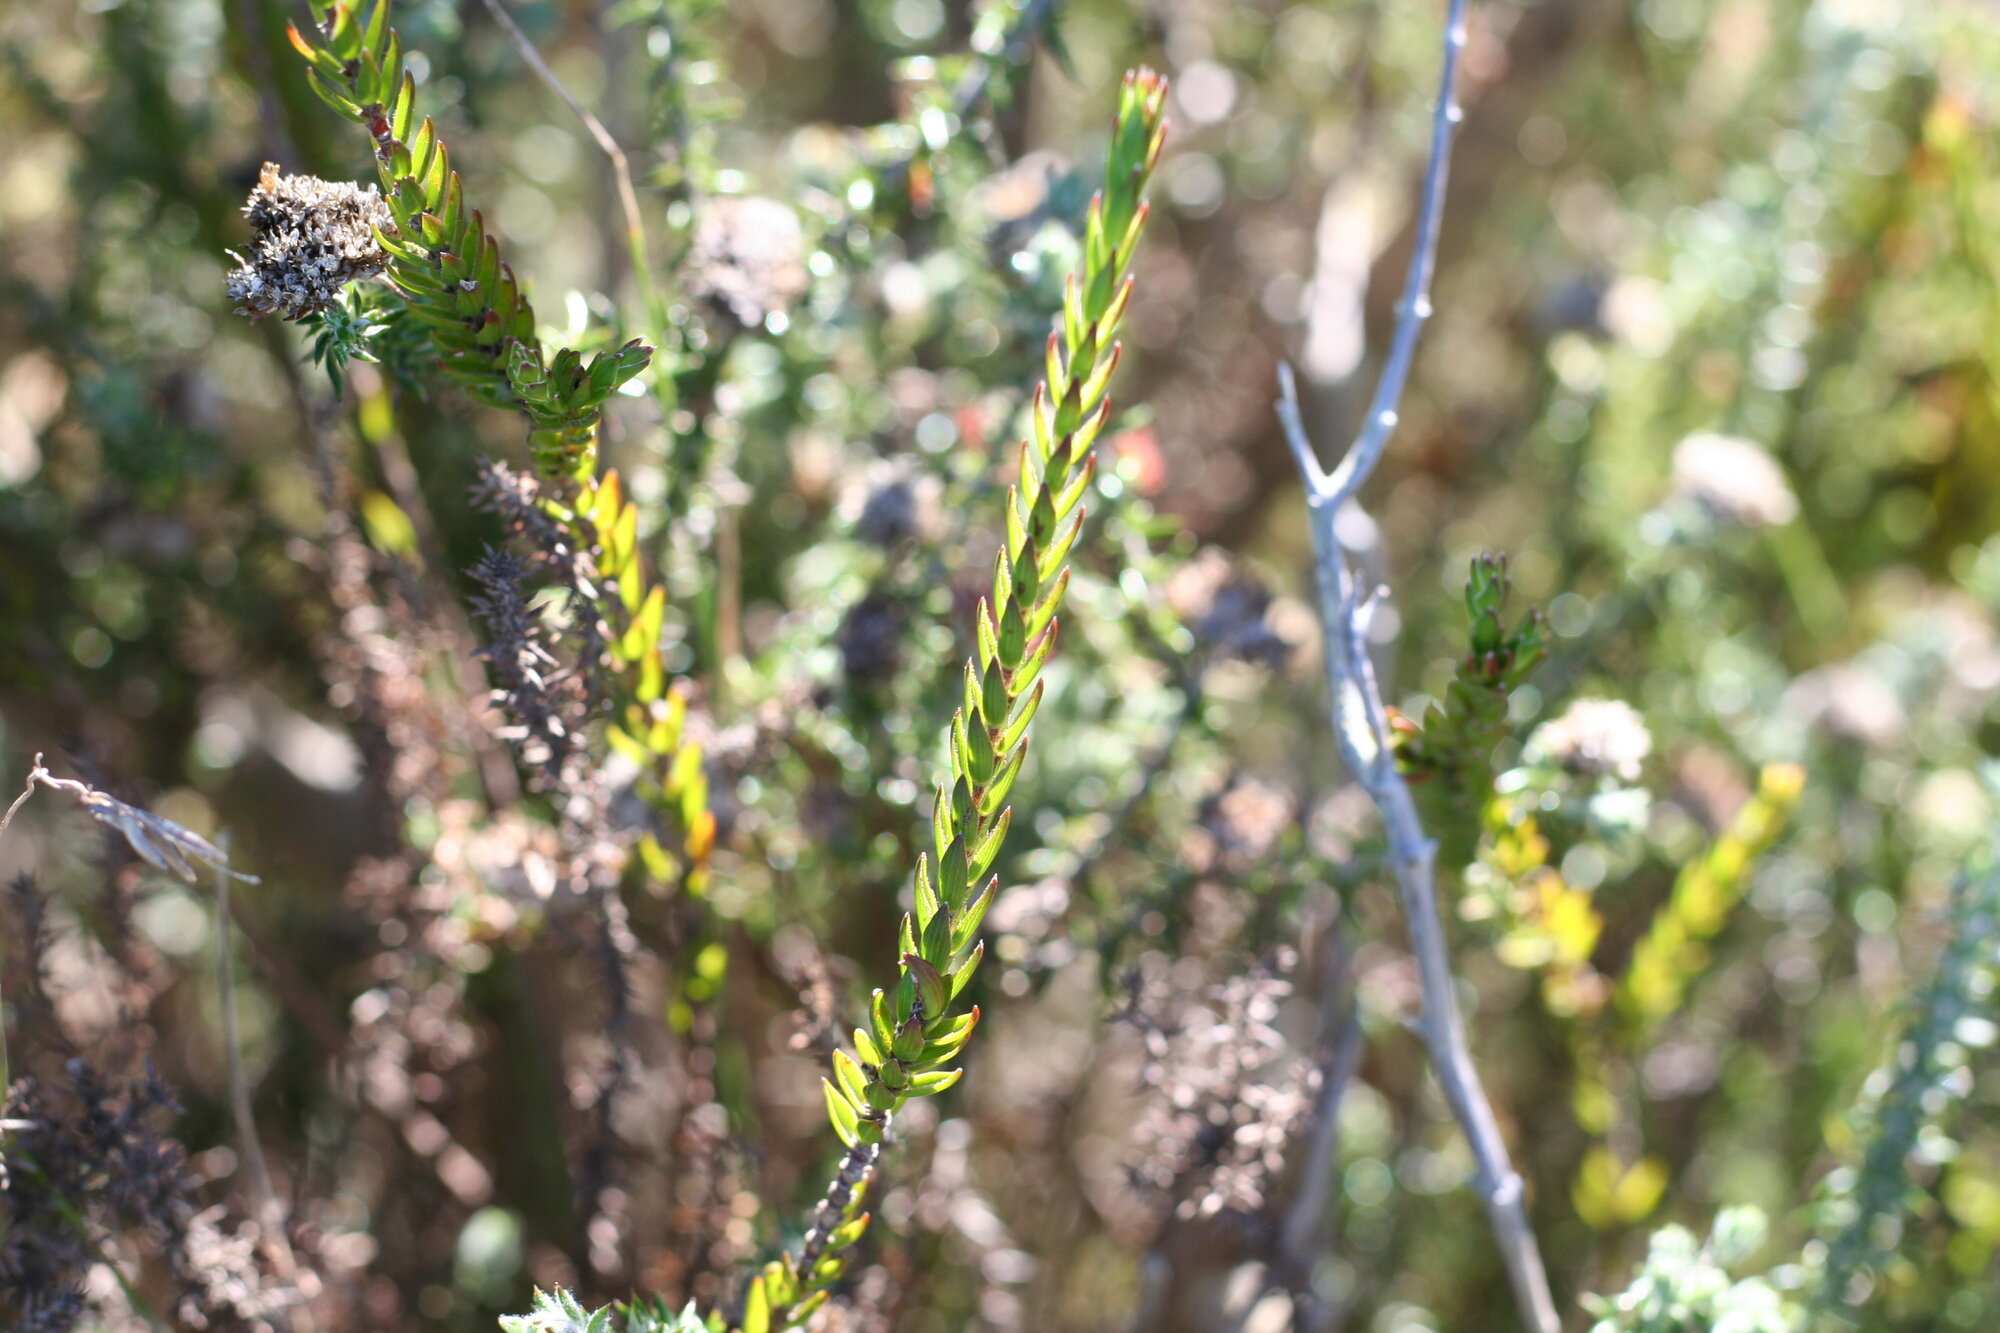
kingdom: Plantae
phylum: Tracheophyta
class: Magnoliopsida
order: Malvales
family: Thymelaeaceae
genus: Struthiola
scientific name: Struthiola ciliata
